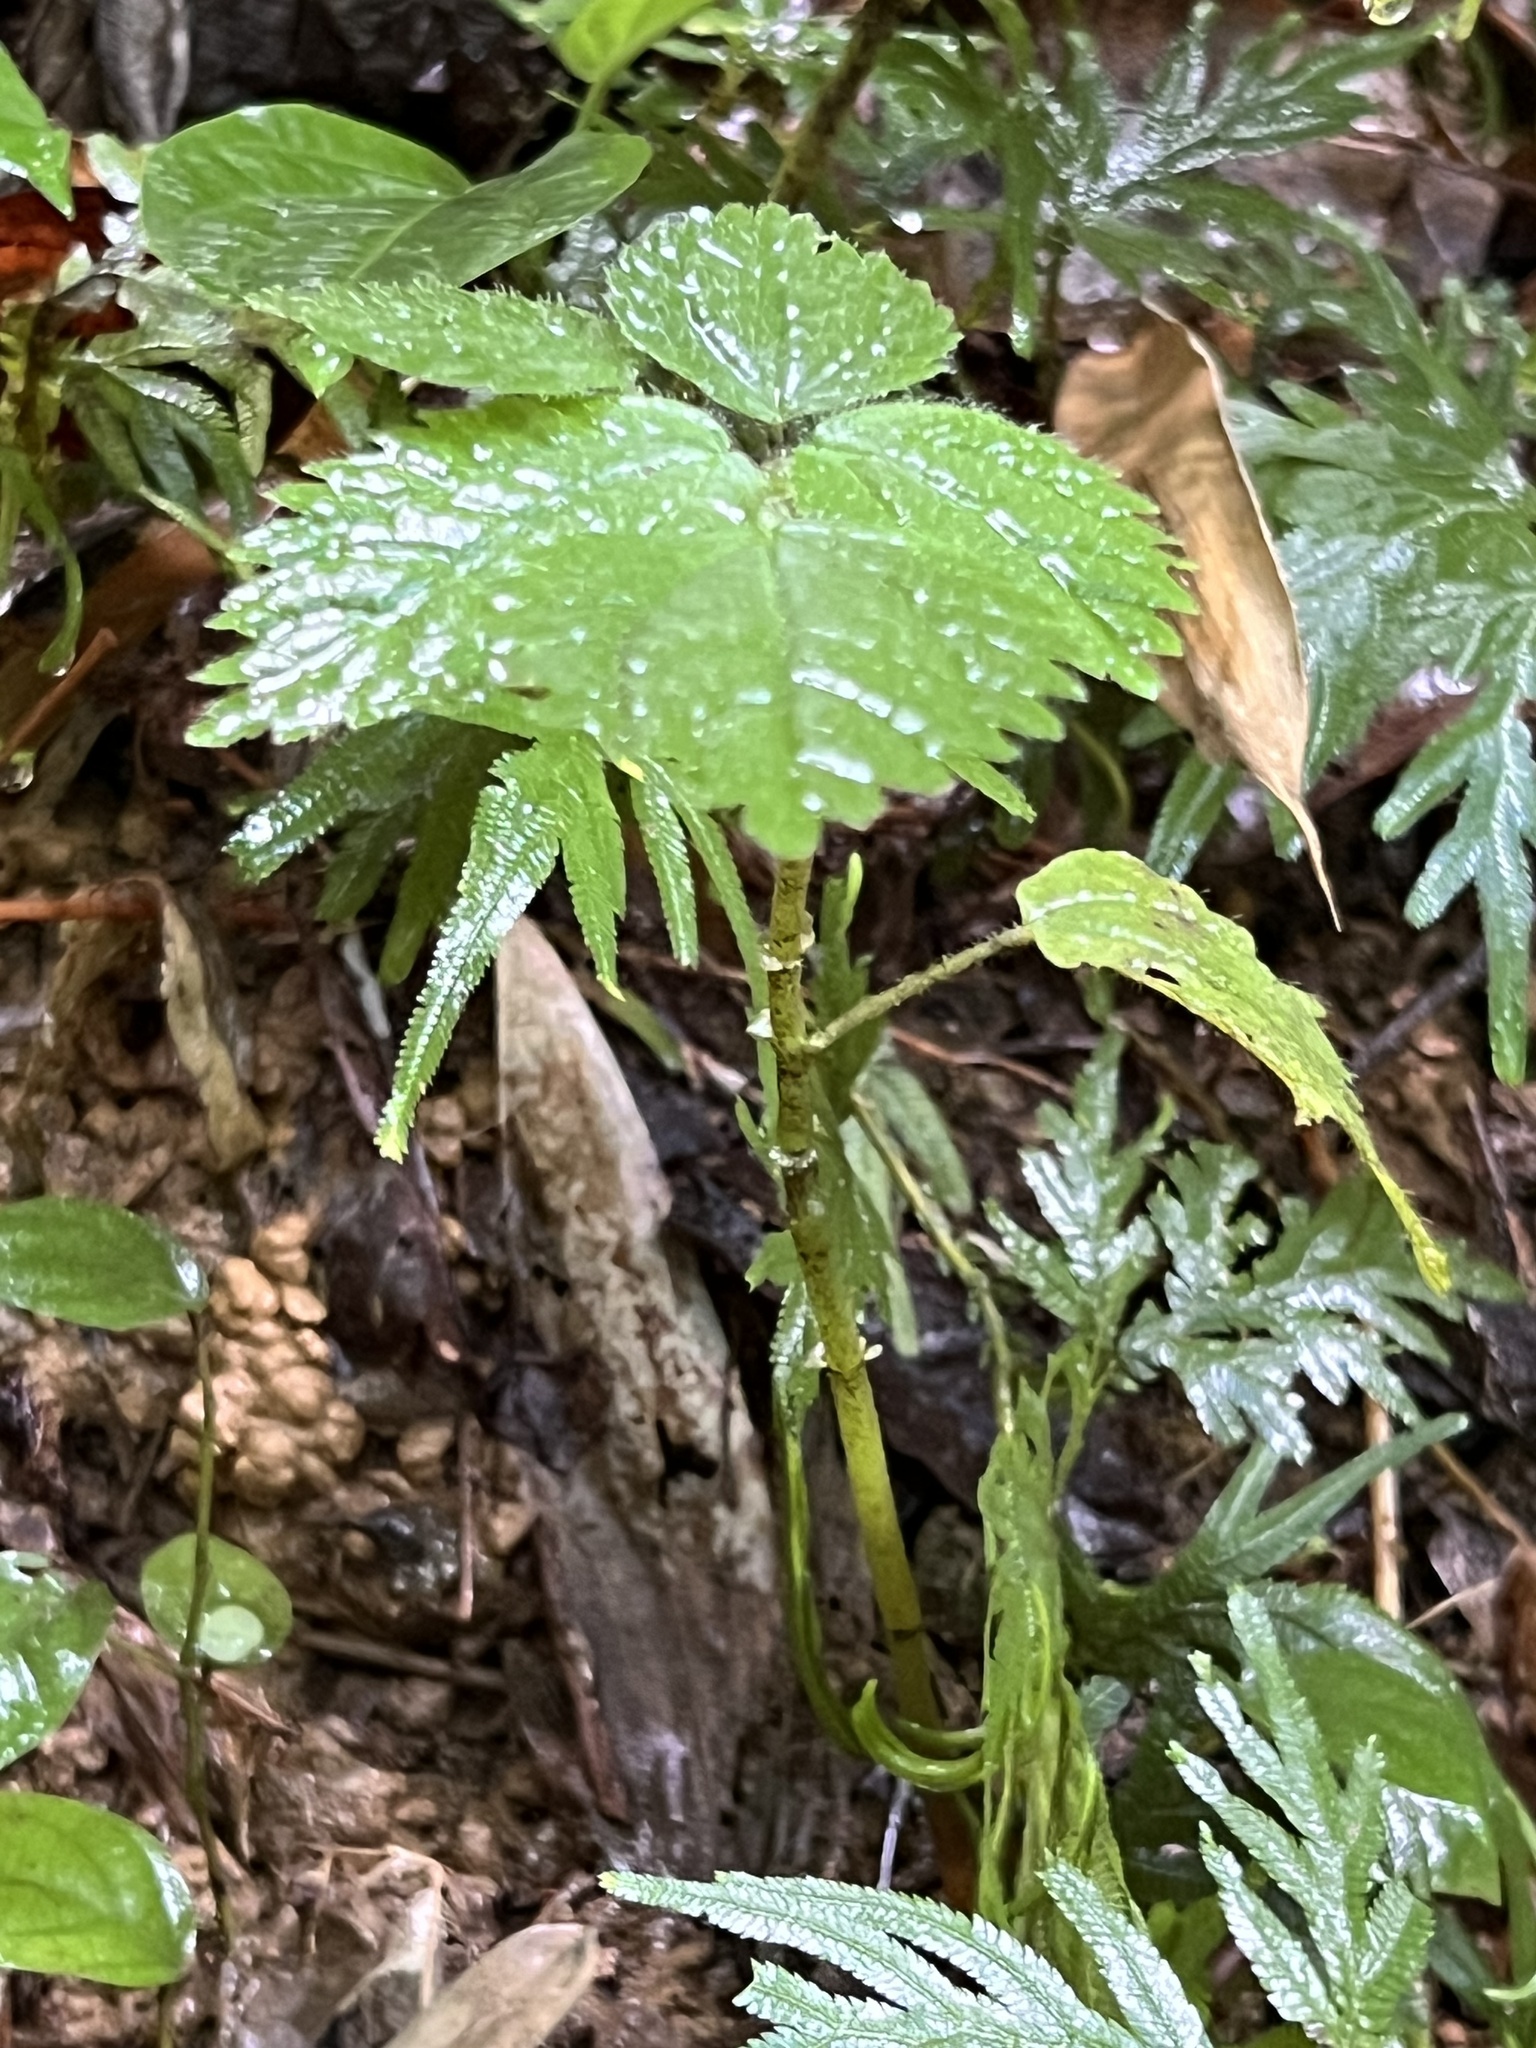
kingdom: Plantae
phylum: Tracheophyta
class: Magnoliopsida
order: Rosales
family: Urticaceae
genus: Pilea
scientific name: Pilea inaequalis
